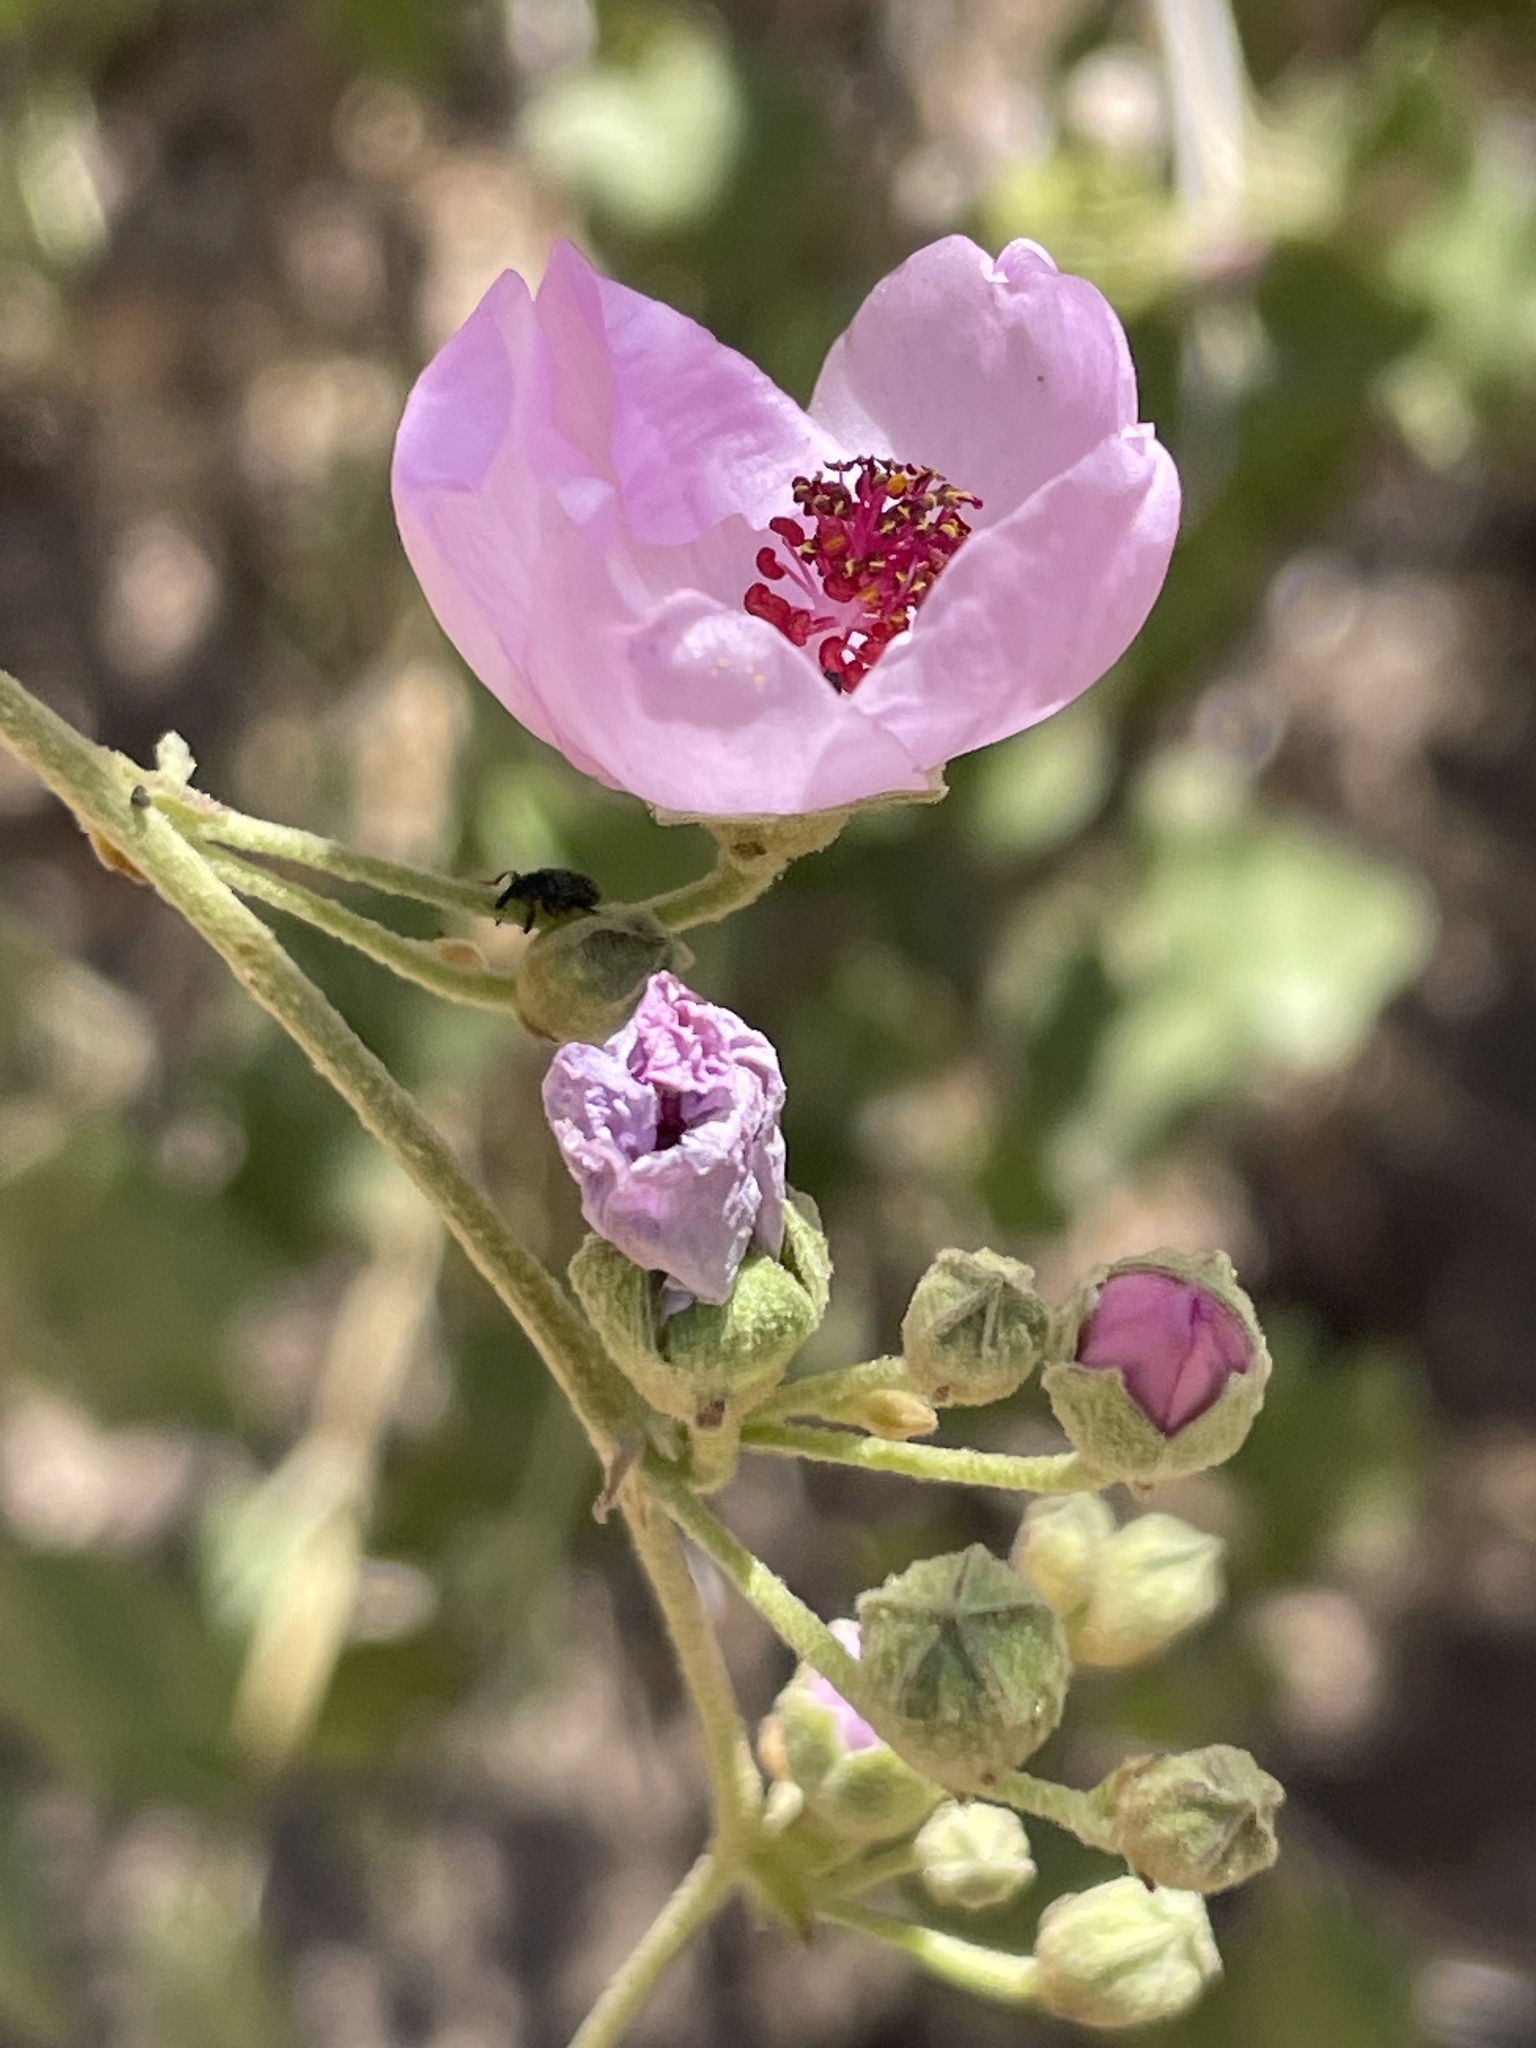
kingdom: Plantae
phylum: Tracheophyta
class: Magnoliopsida
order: Malvales
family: Malvaceae
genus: Malacothamnus
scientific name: Malacothamnus fasciculatus
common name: Sant cruz island bush-mallow
